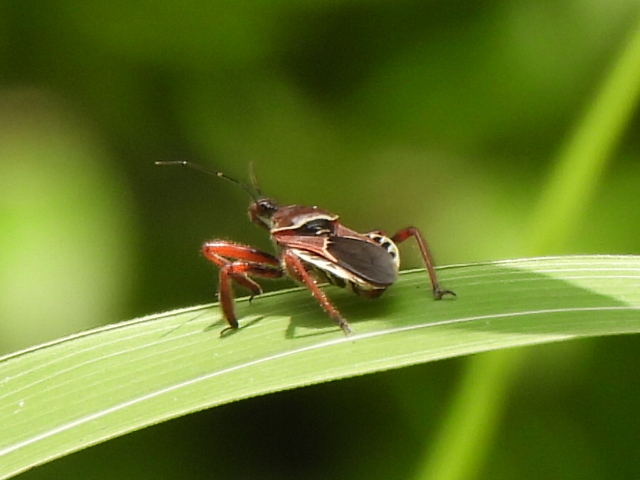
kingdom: Animalia
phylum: Arthropoda
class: Insecta
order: Hemiptera
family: Reduviidae
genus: Apiomerus
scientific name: Apiomerus spissipes
